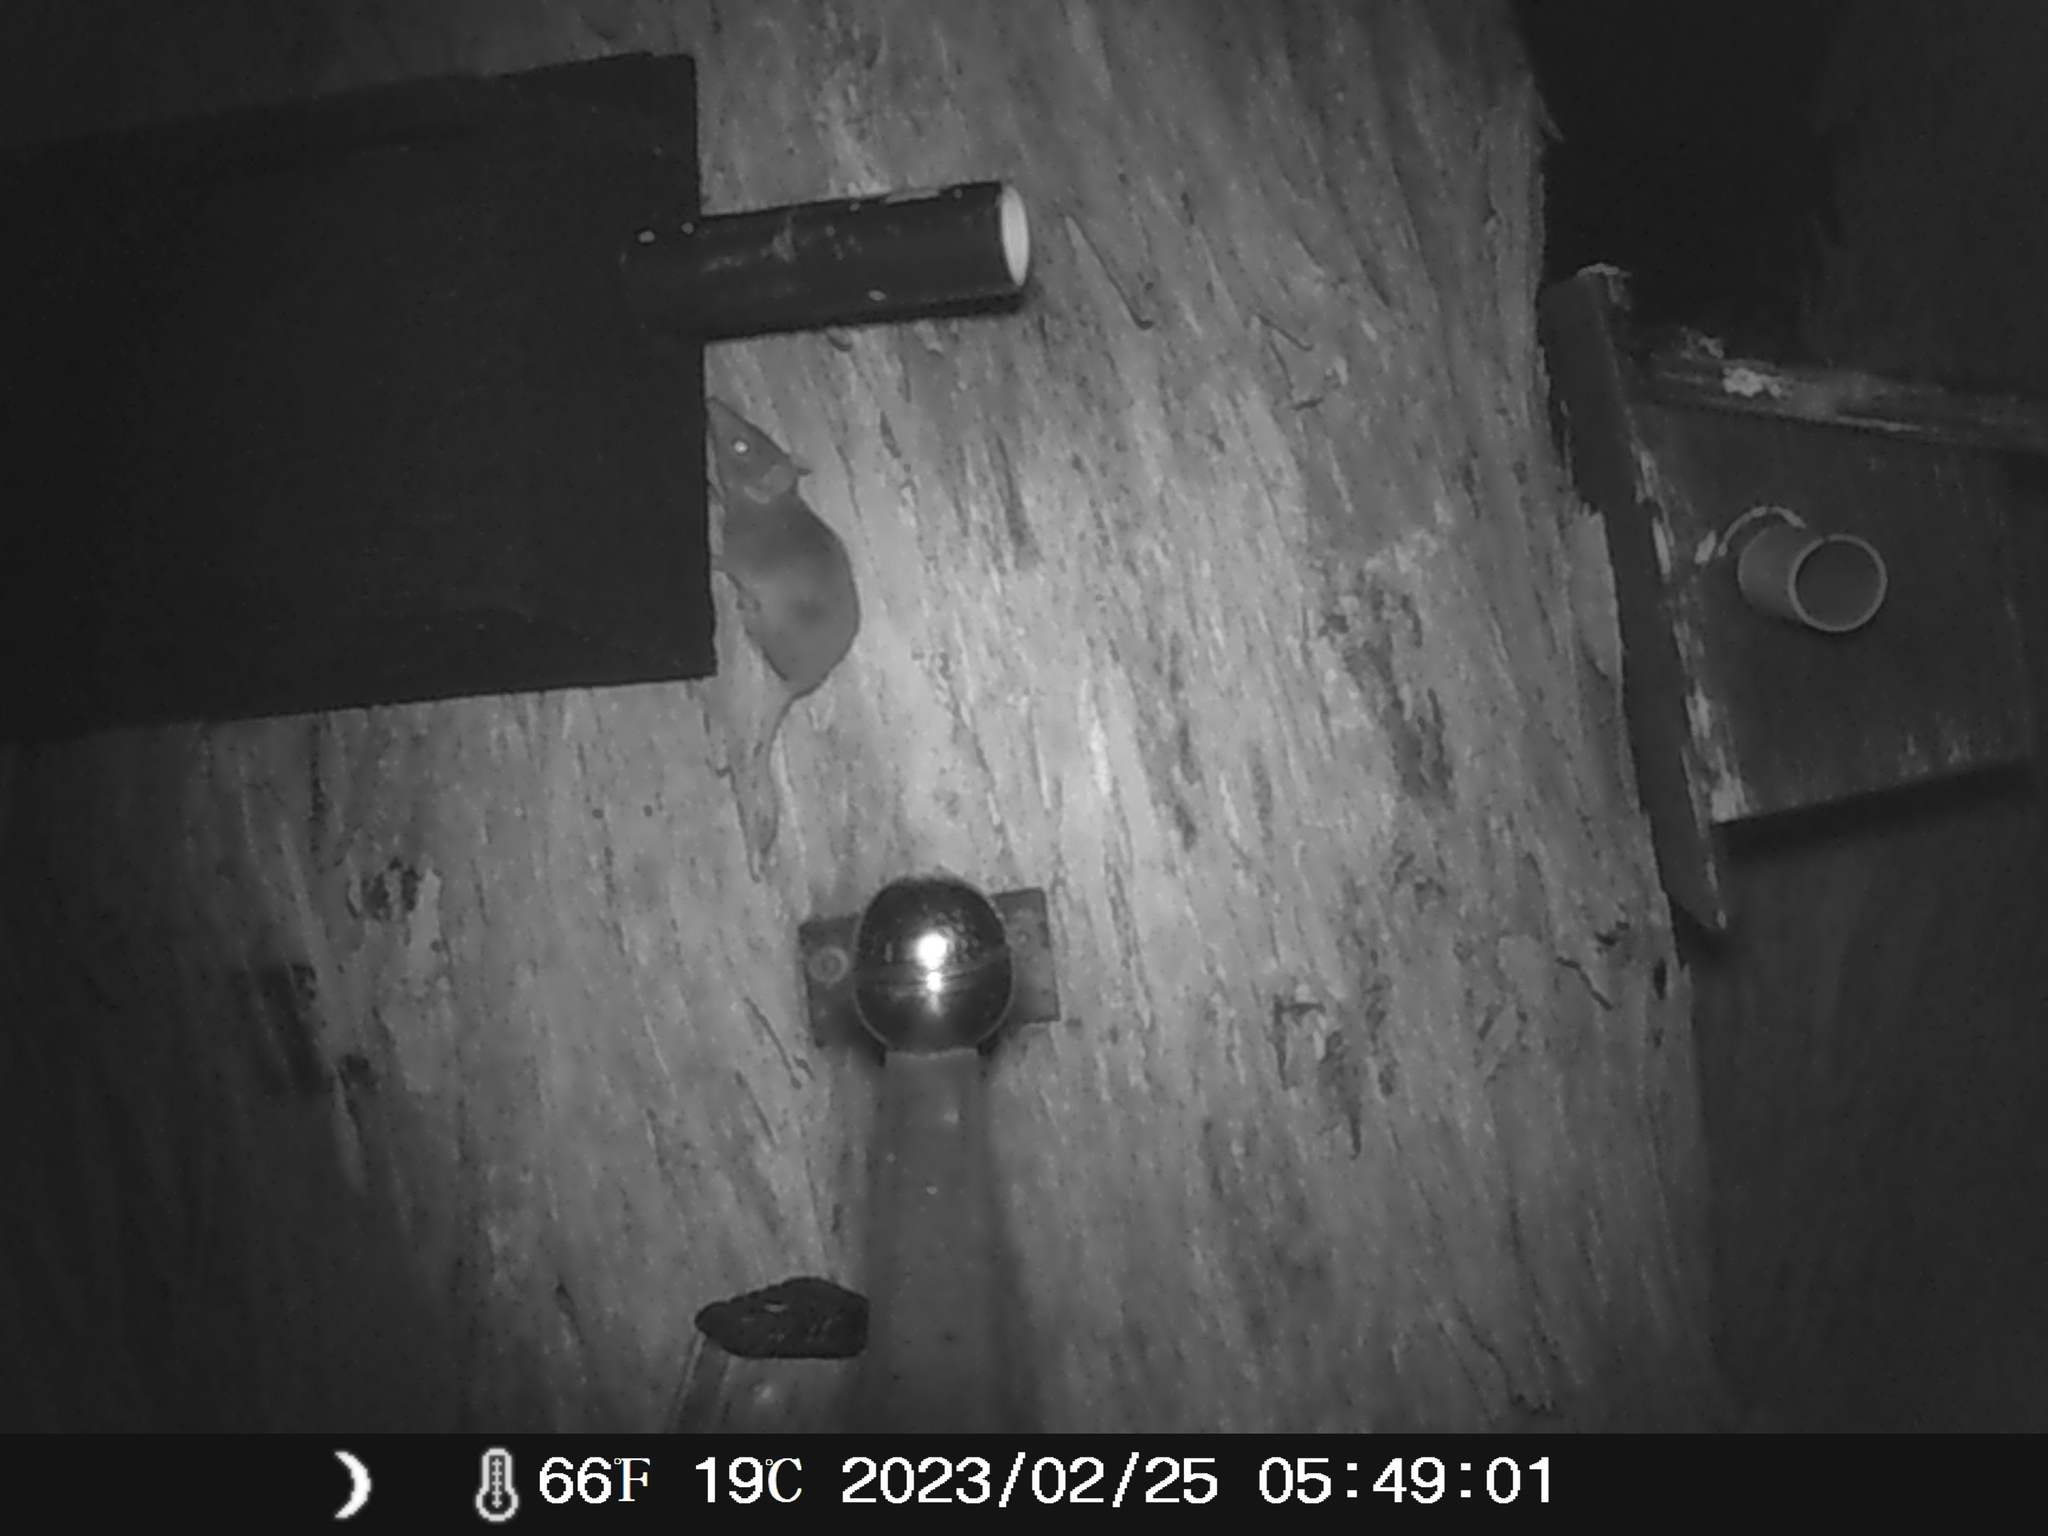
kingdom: Animalia
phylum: Chordata
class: Mammalia
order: Dasyuromorphia
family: Dasyuridae
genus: Antechinus
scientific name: Antechinus agilis
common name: Agile antechinus
